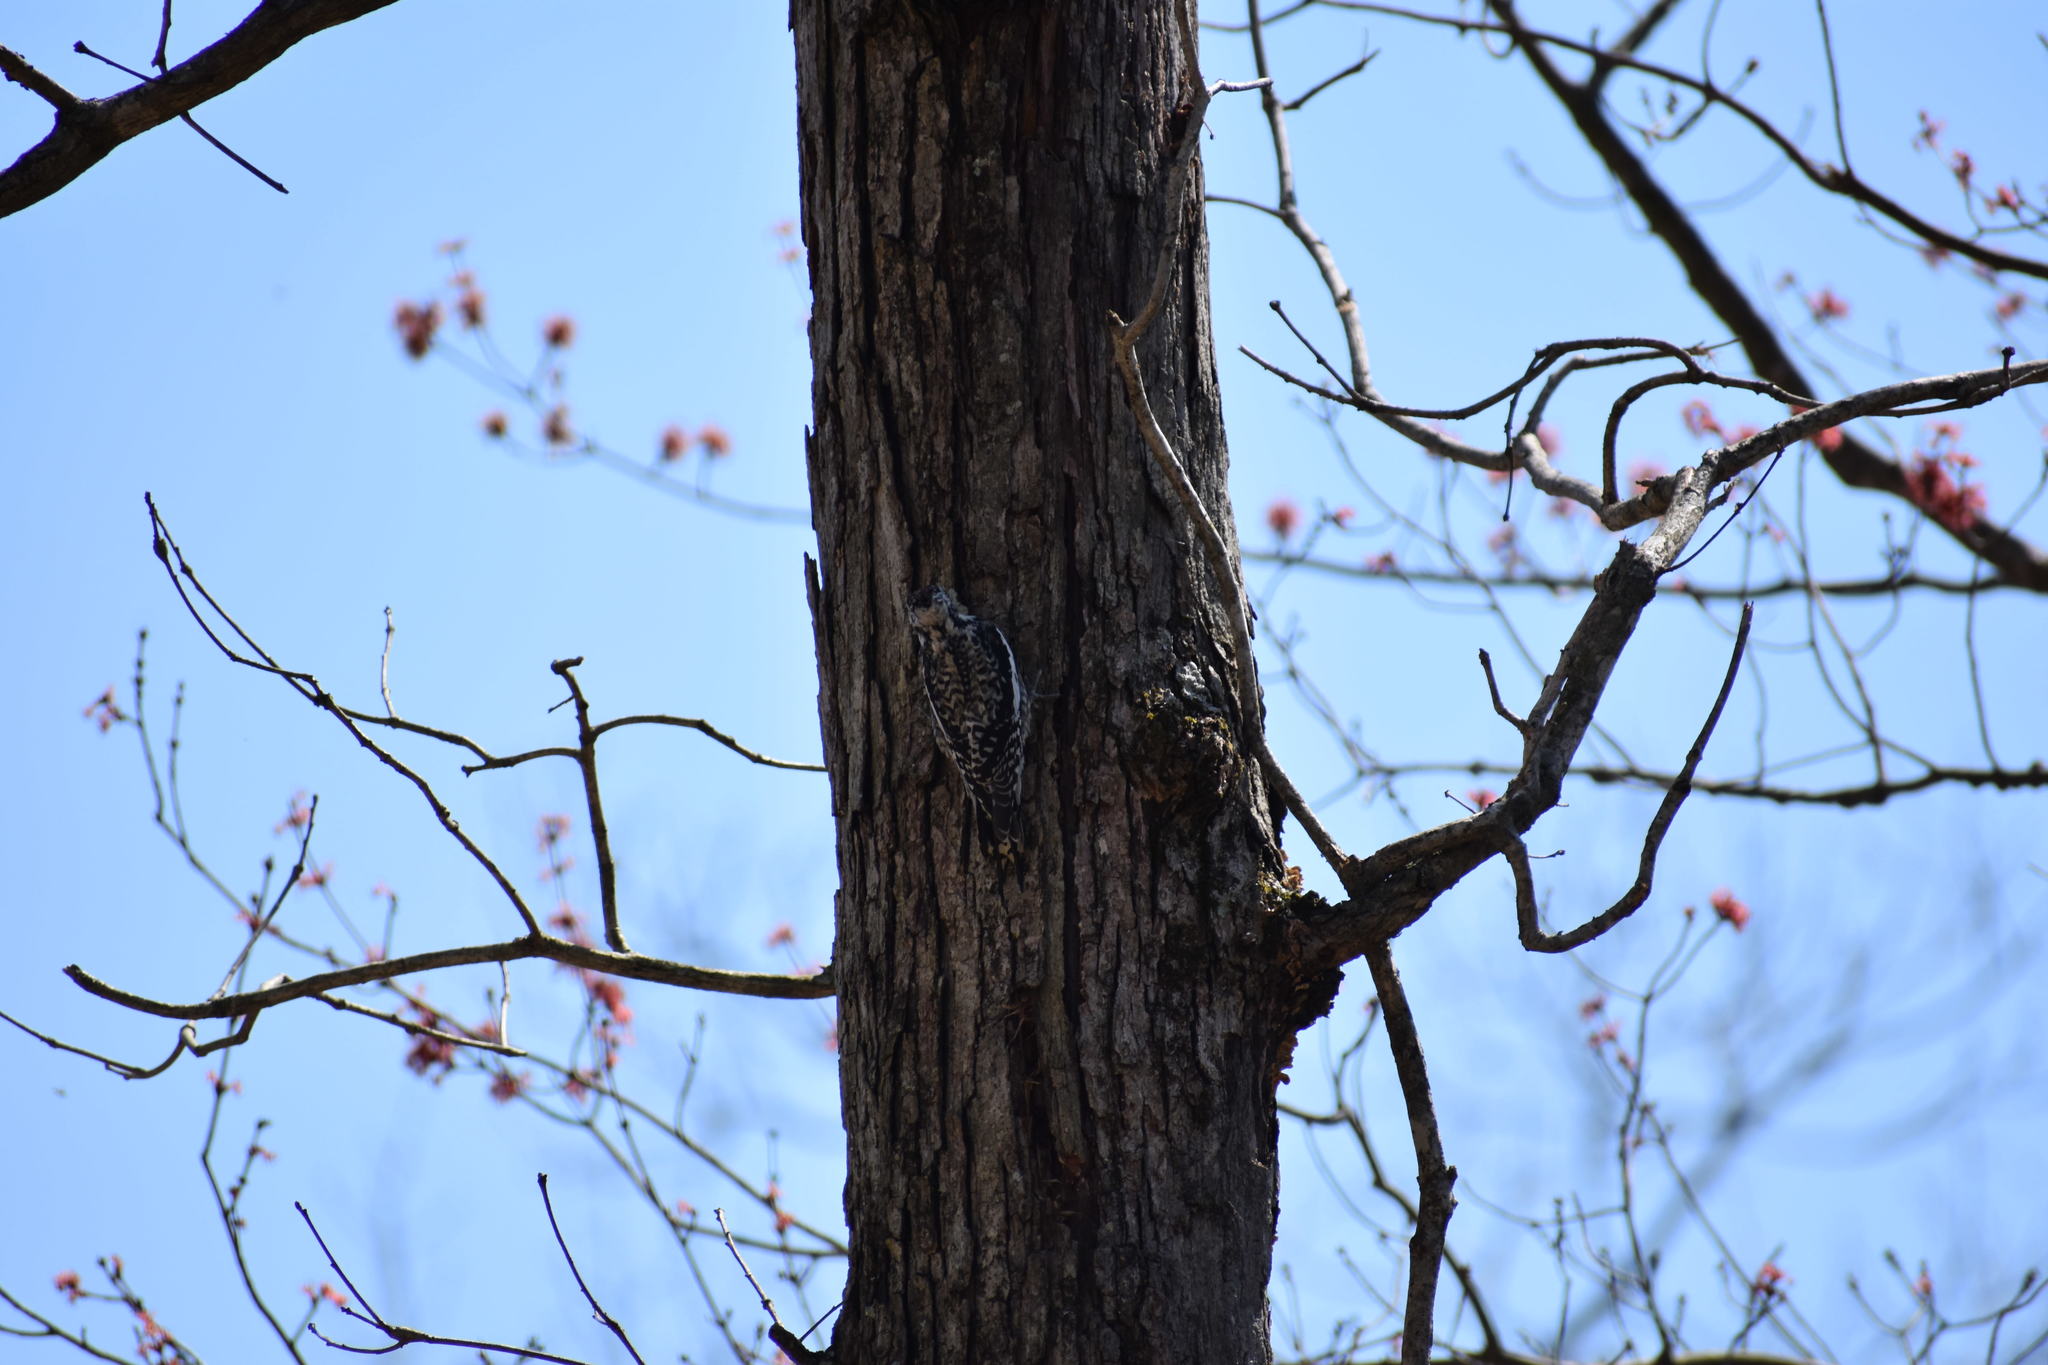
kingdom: Animalia
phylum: Chordata
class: Aves
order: Piciformes
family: Picidae
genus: Sphyrapicus
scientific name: Sphyrapicus varius
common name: Yellow-bellied sapsucker
